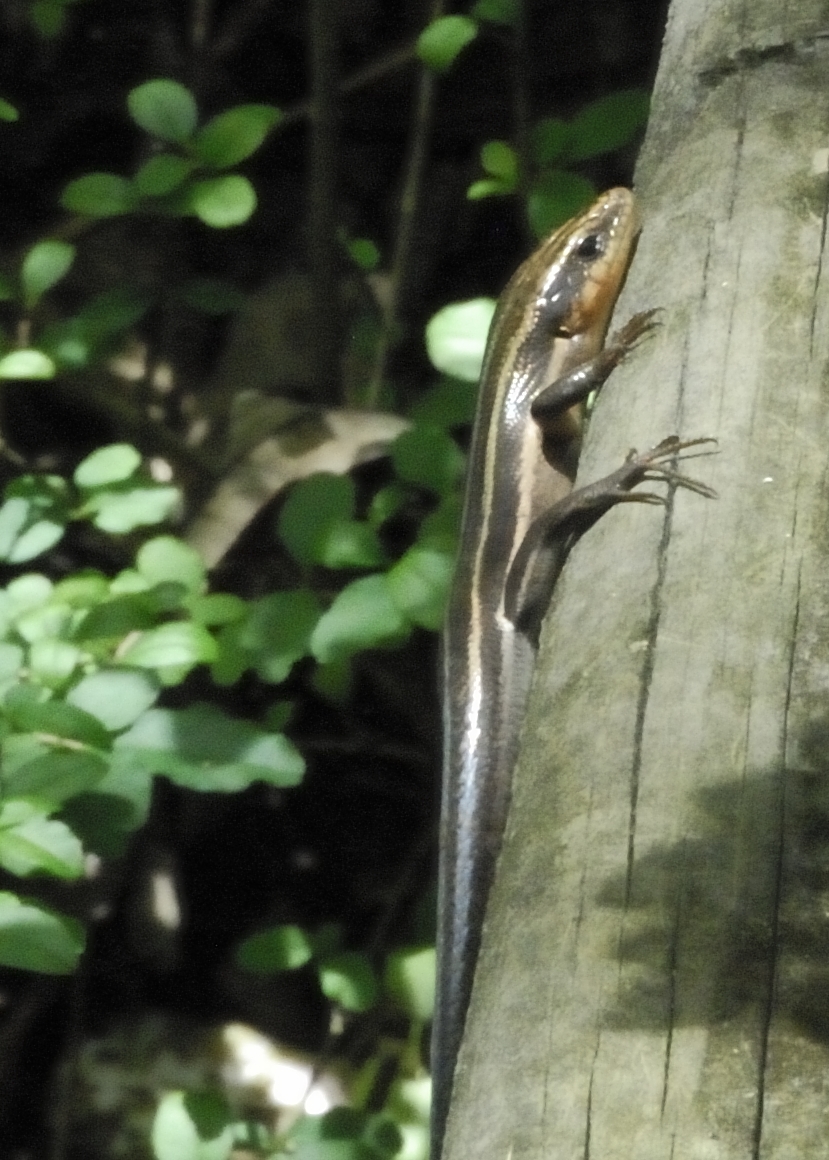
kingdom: Animalia
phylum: Chordata
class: Squamata
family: Scincidae
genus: Plestiodon
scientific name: Plestiodon fasciatus
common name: Five-lined skink
